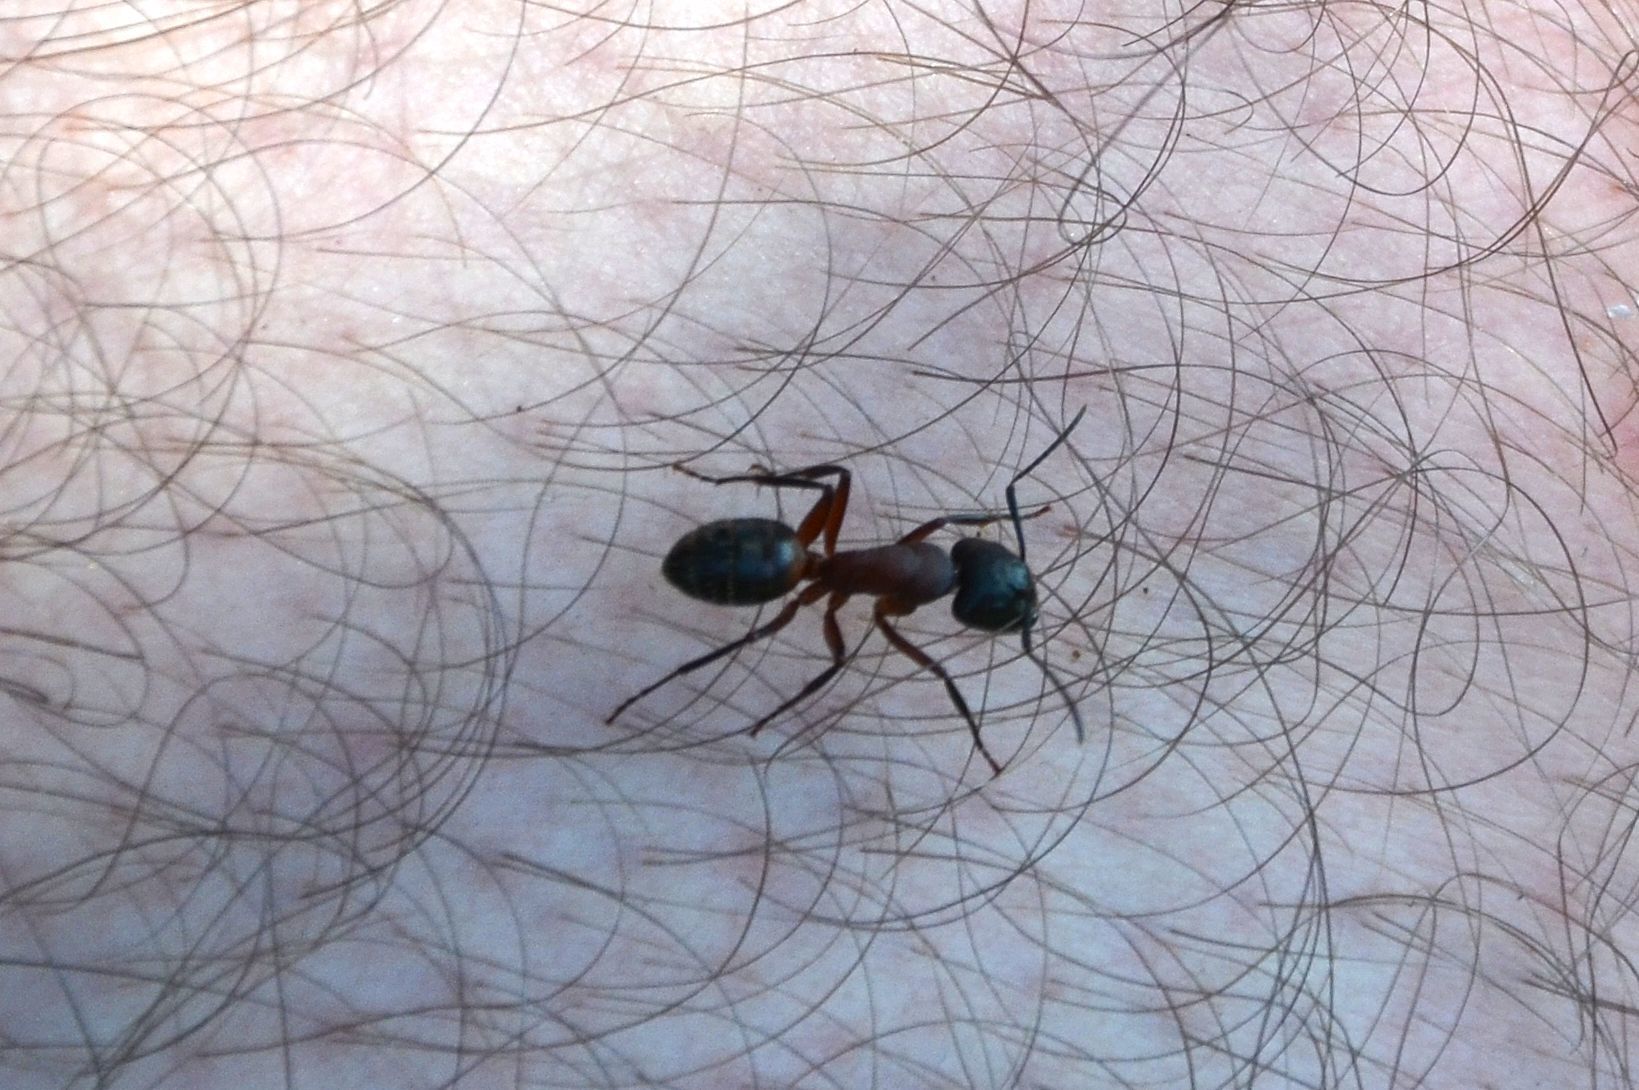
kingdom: Animalia
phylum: Arthropoda
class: Insecta
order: Hymenoptera
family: Formicidae
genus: Camponotus
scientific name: Camponotus ligniperdus
